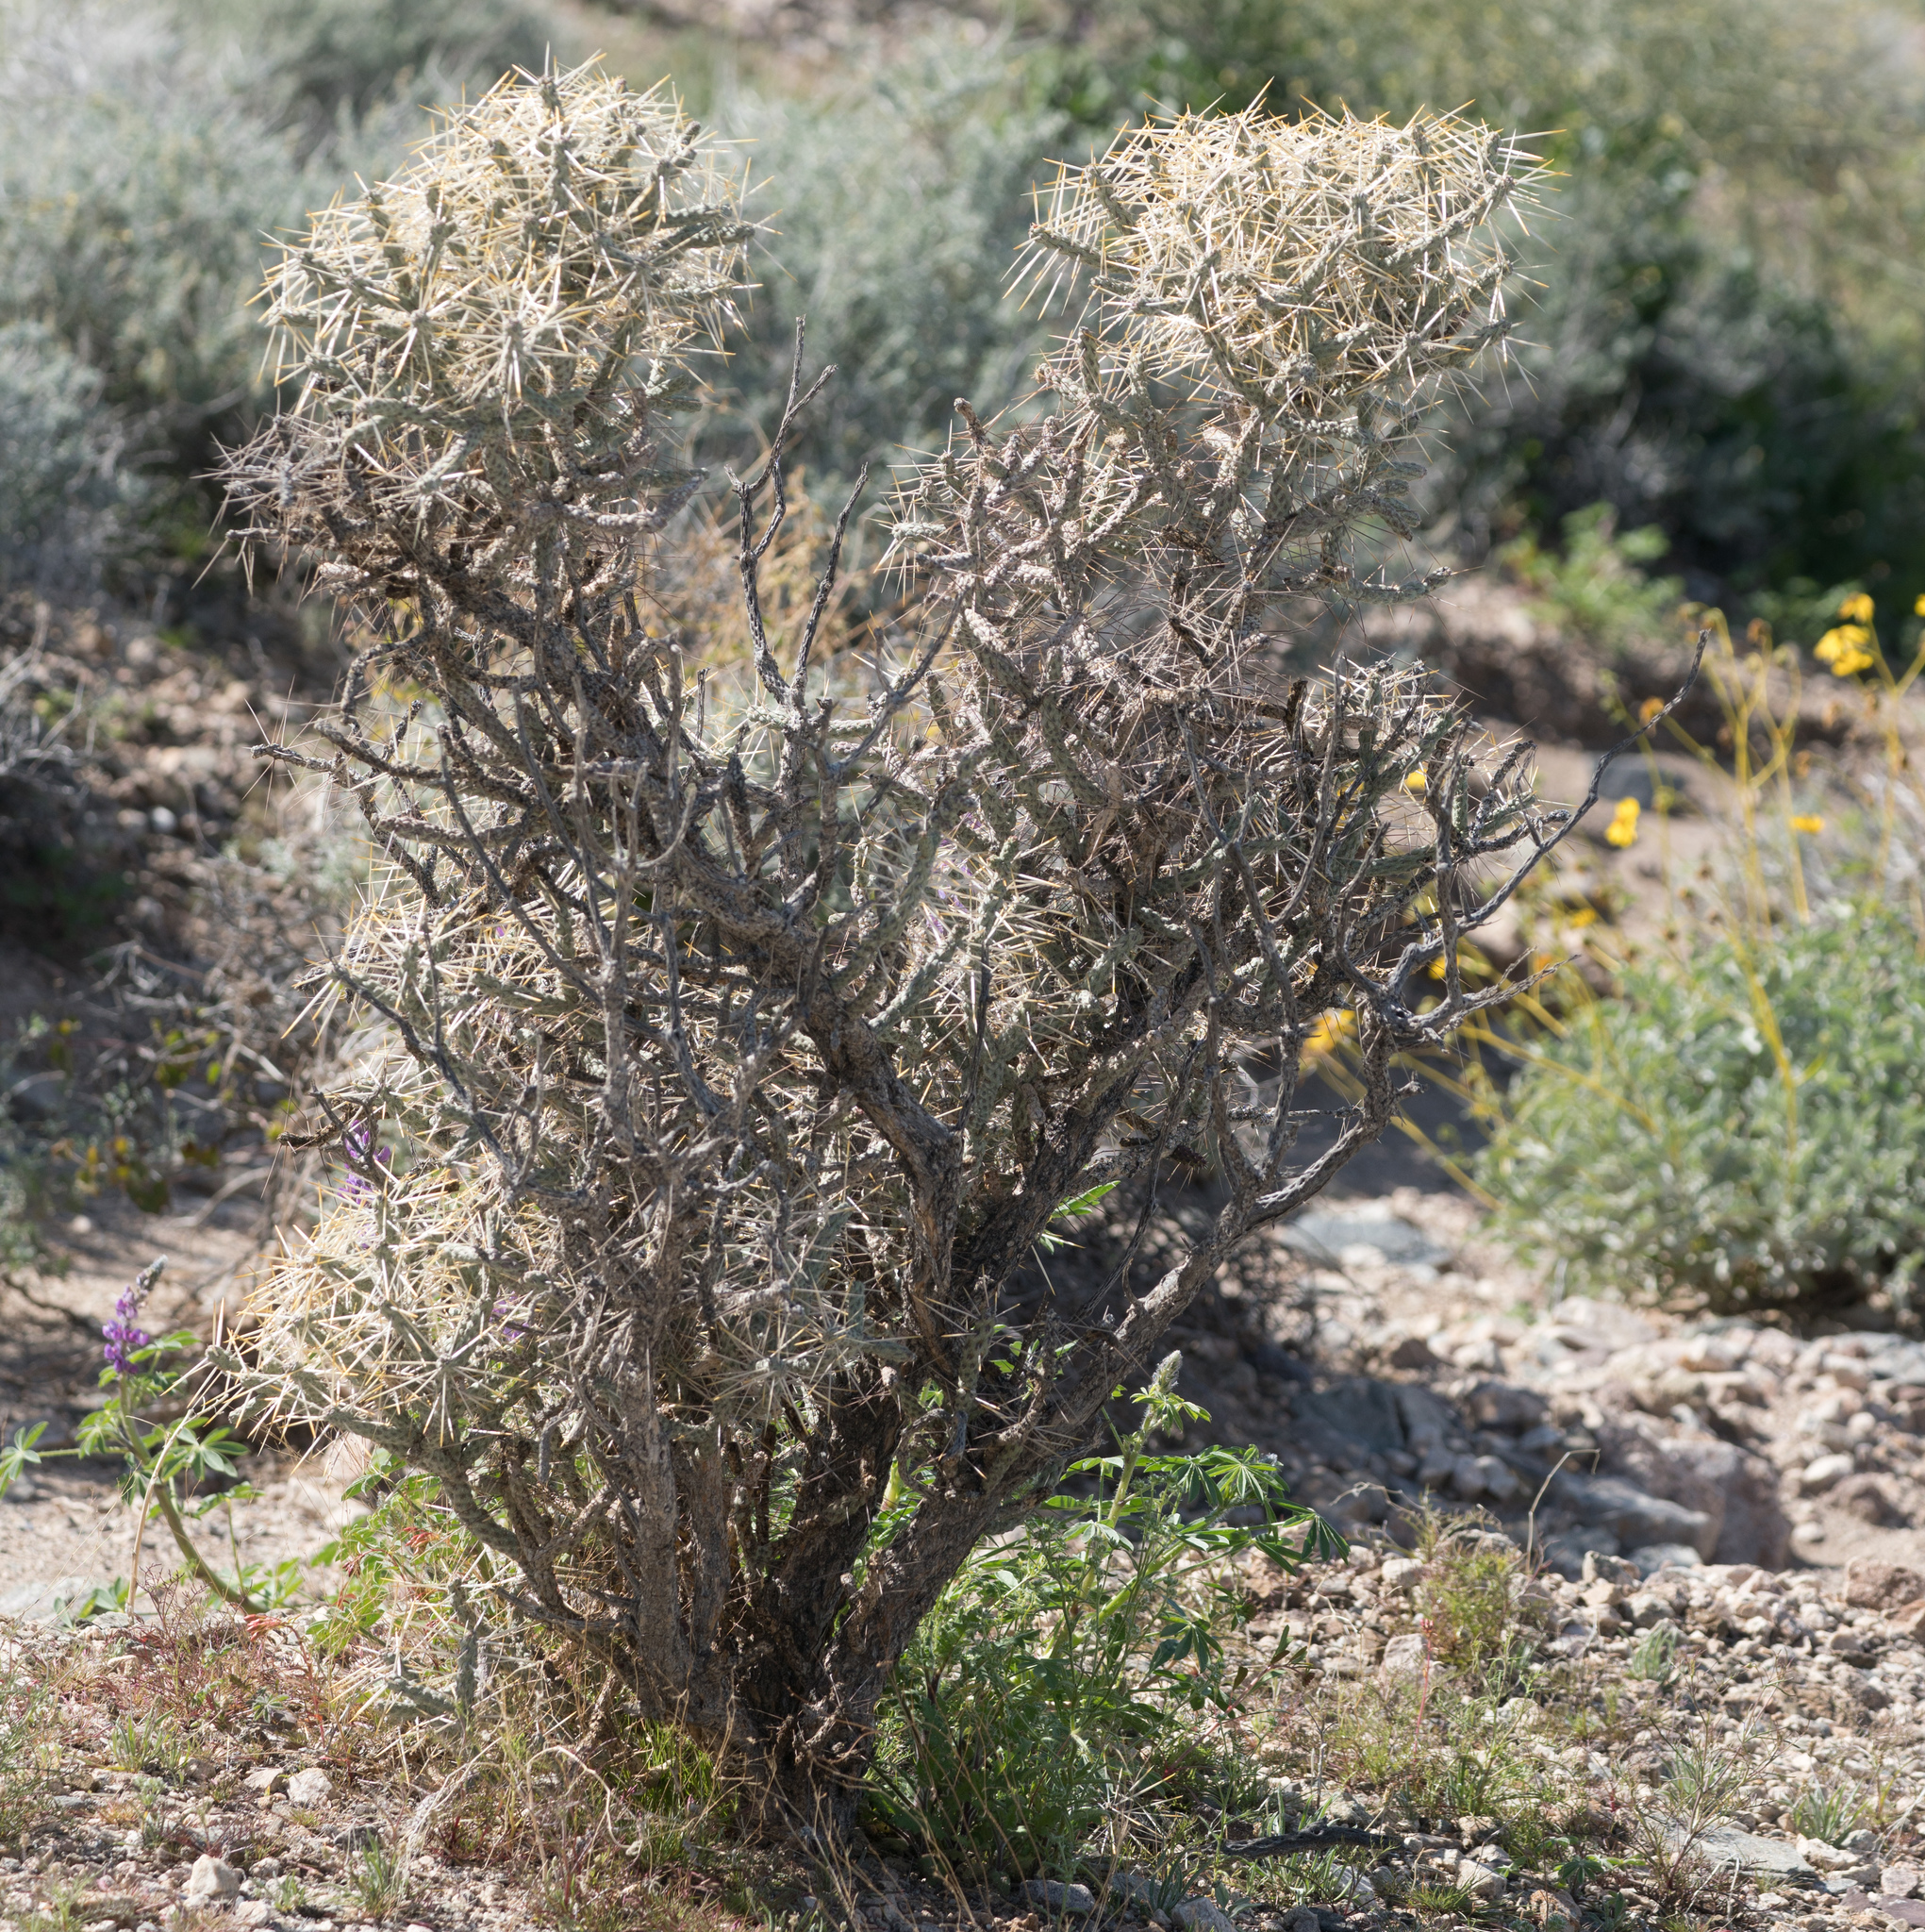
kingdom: Plantae
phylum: Tracheophyta
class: Magnoliopsida
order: Caryophyllales
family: Cactaceae
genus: Cylindropuntia
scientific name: Cylindropuntia ramosissima
